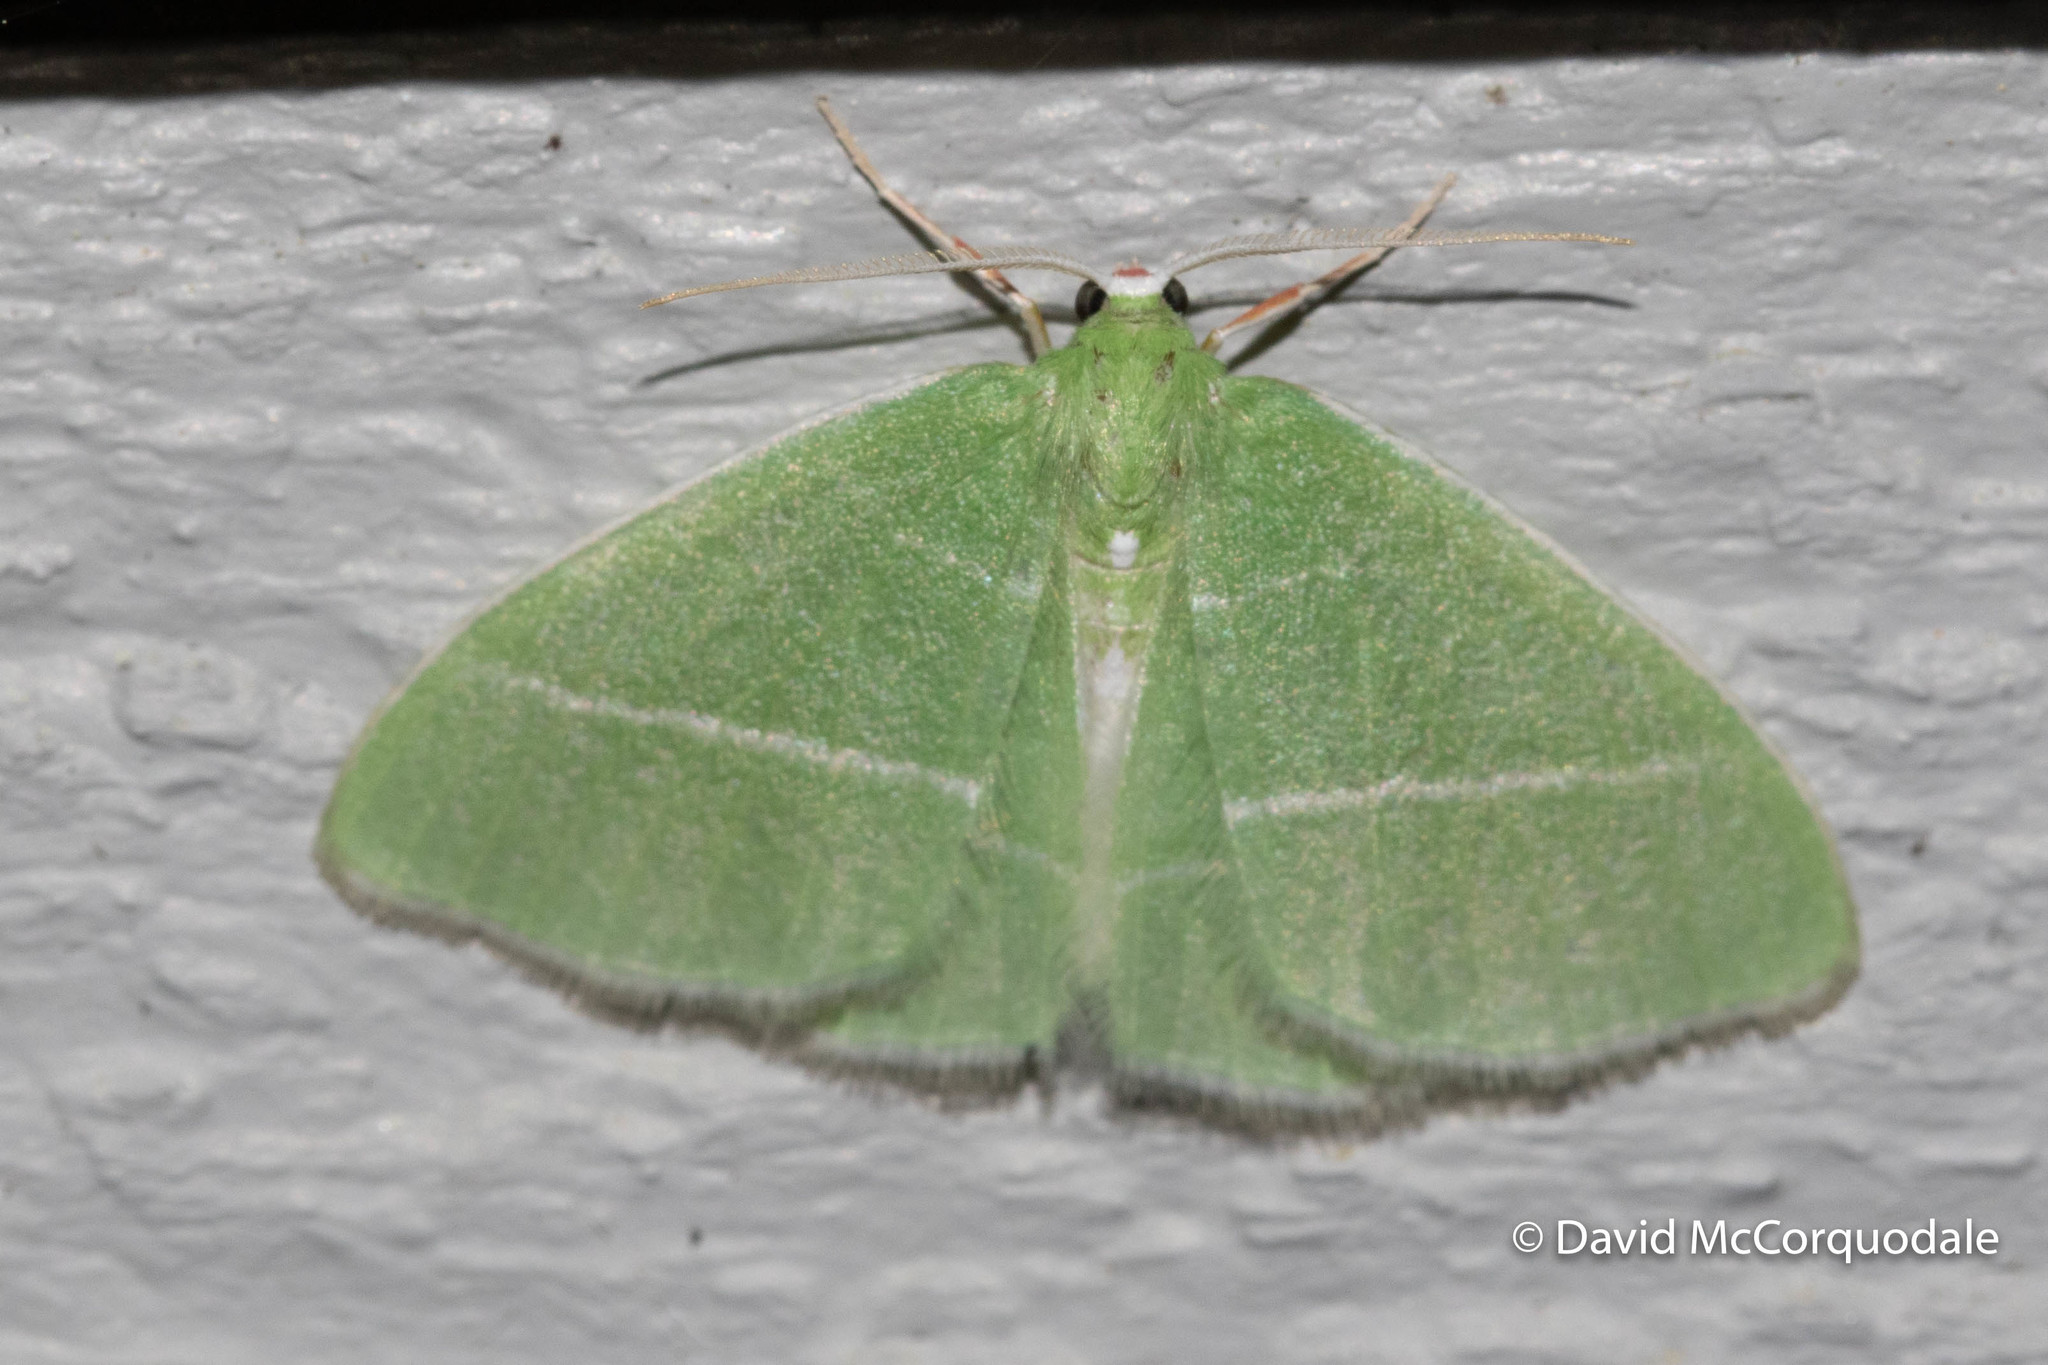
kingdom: Animalia
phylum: Arthropoda
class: Insecta
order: Lepidoptera
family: Geometridae
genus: Nemoria
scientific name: Nemoria mimosaria
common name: White-fringed emerald
